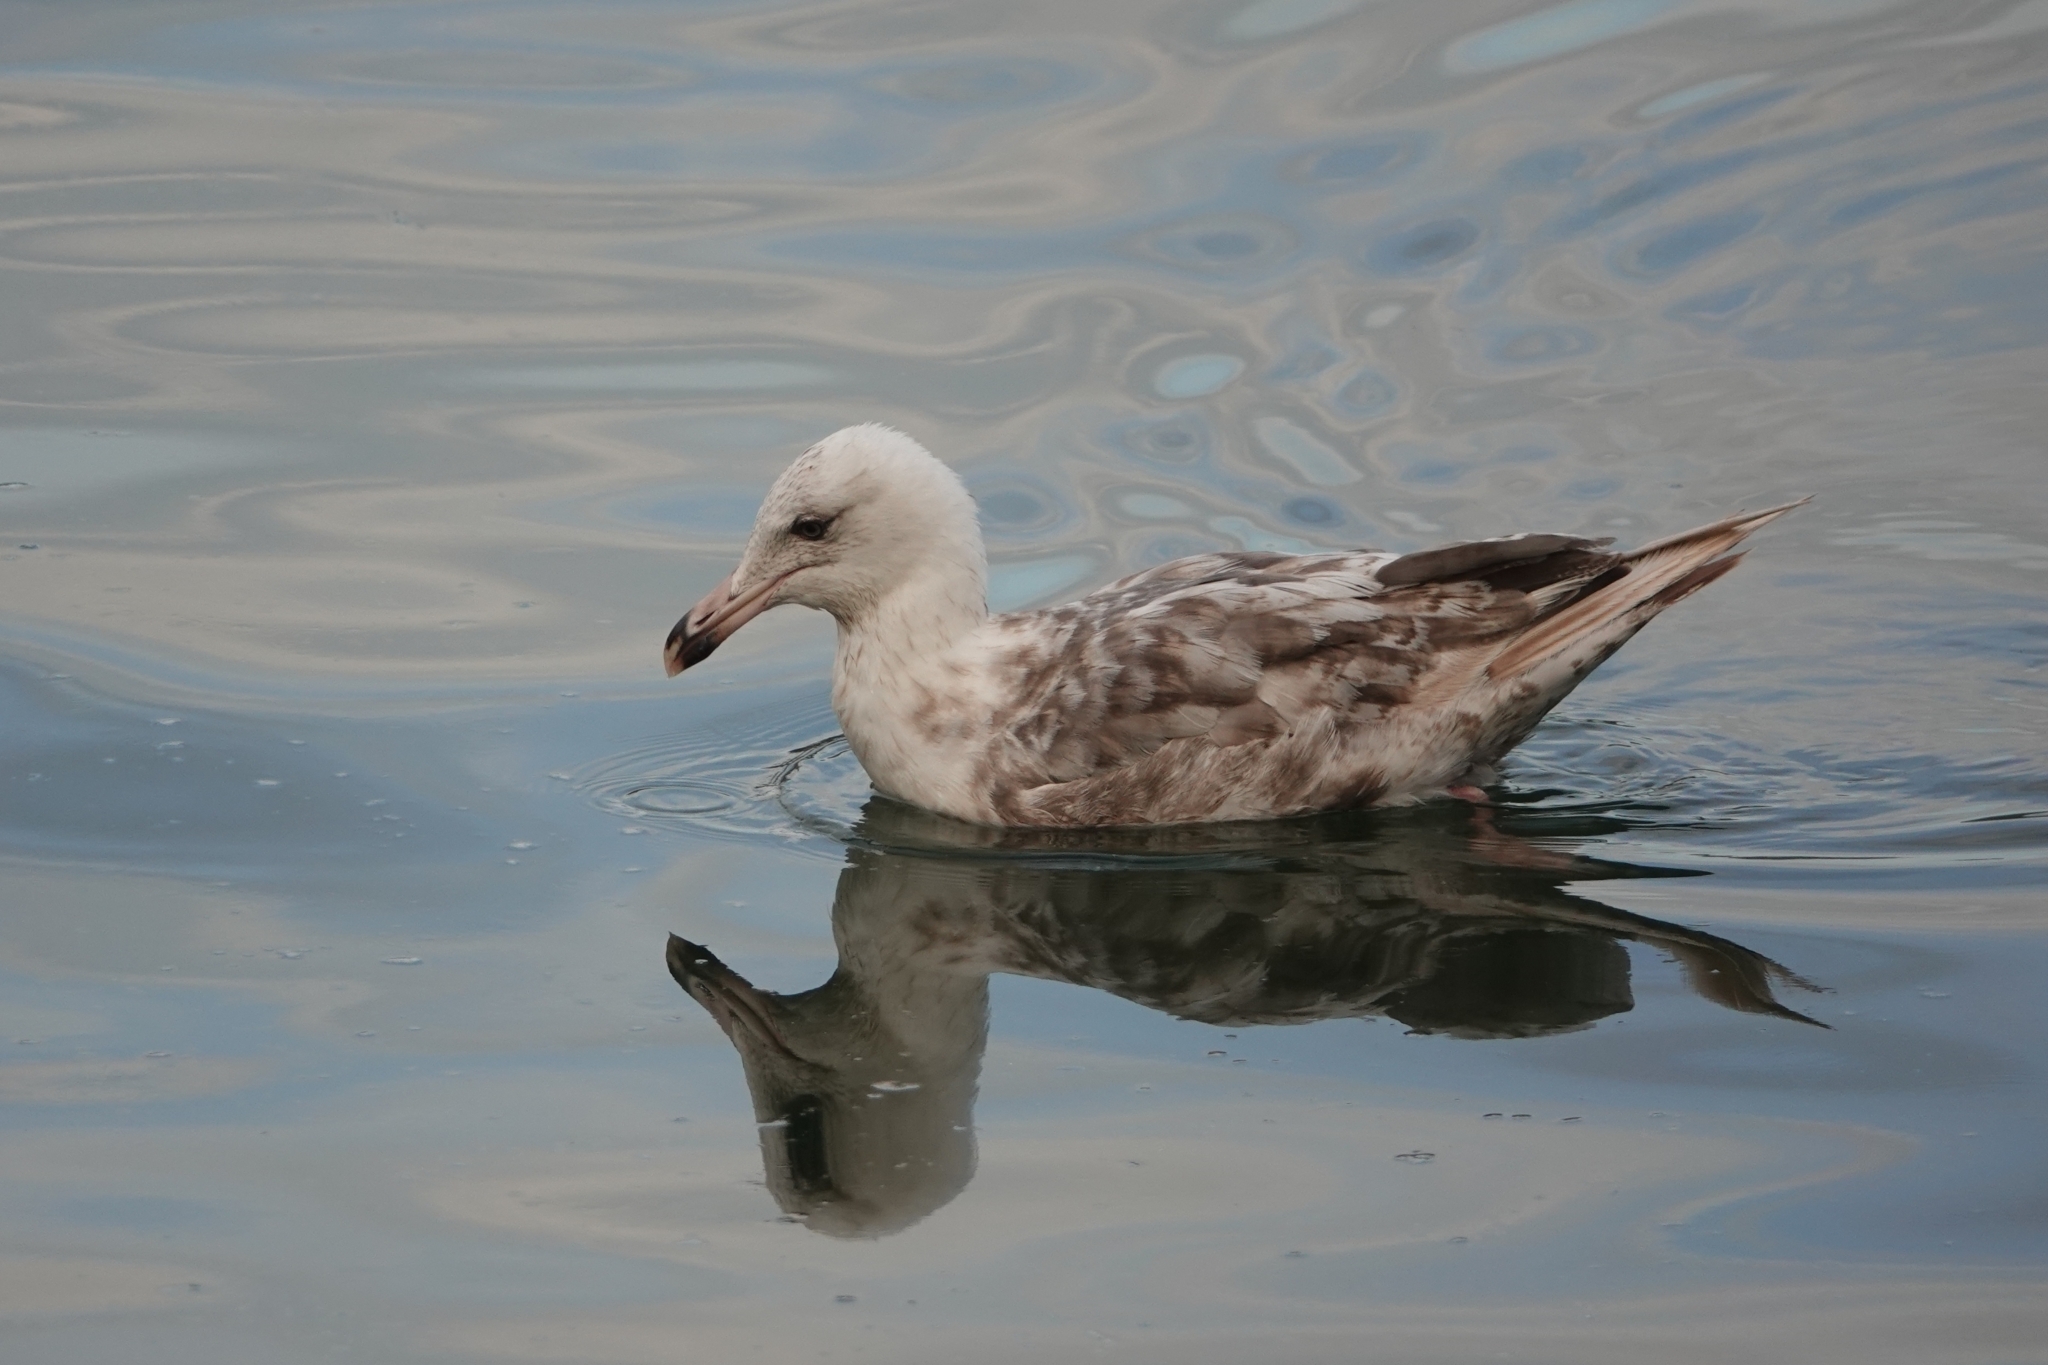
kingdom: Animalia
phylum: Chordata
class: Aves
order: Charadriiformes
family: Laridae
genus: Larus
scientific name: Larus schistisagus
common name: Slaty-backed gull
